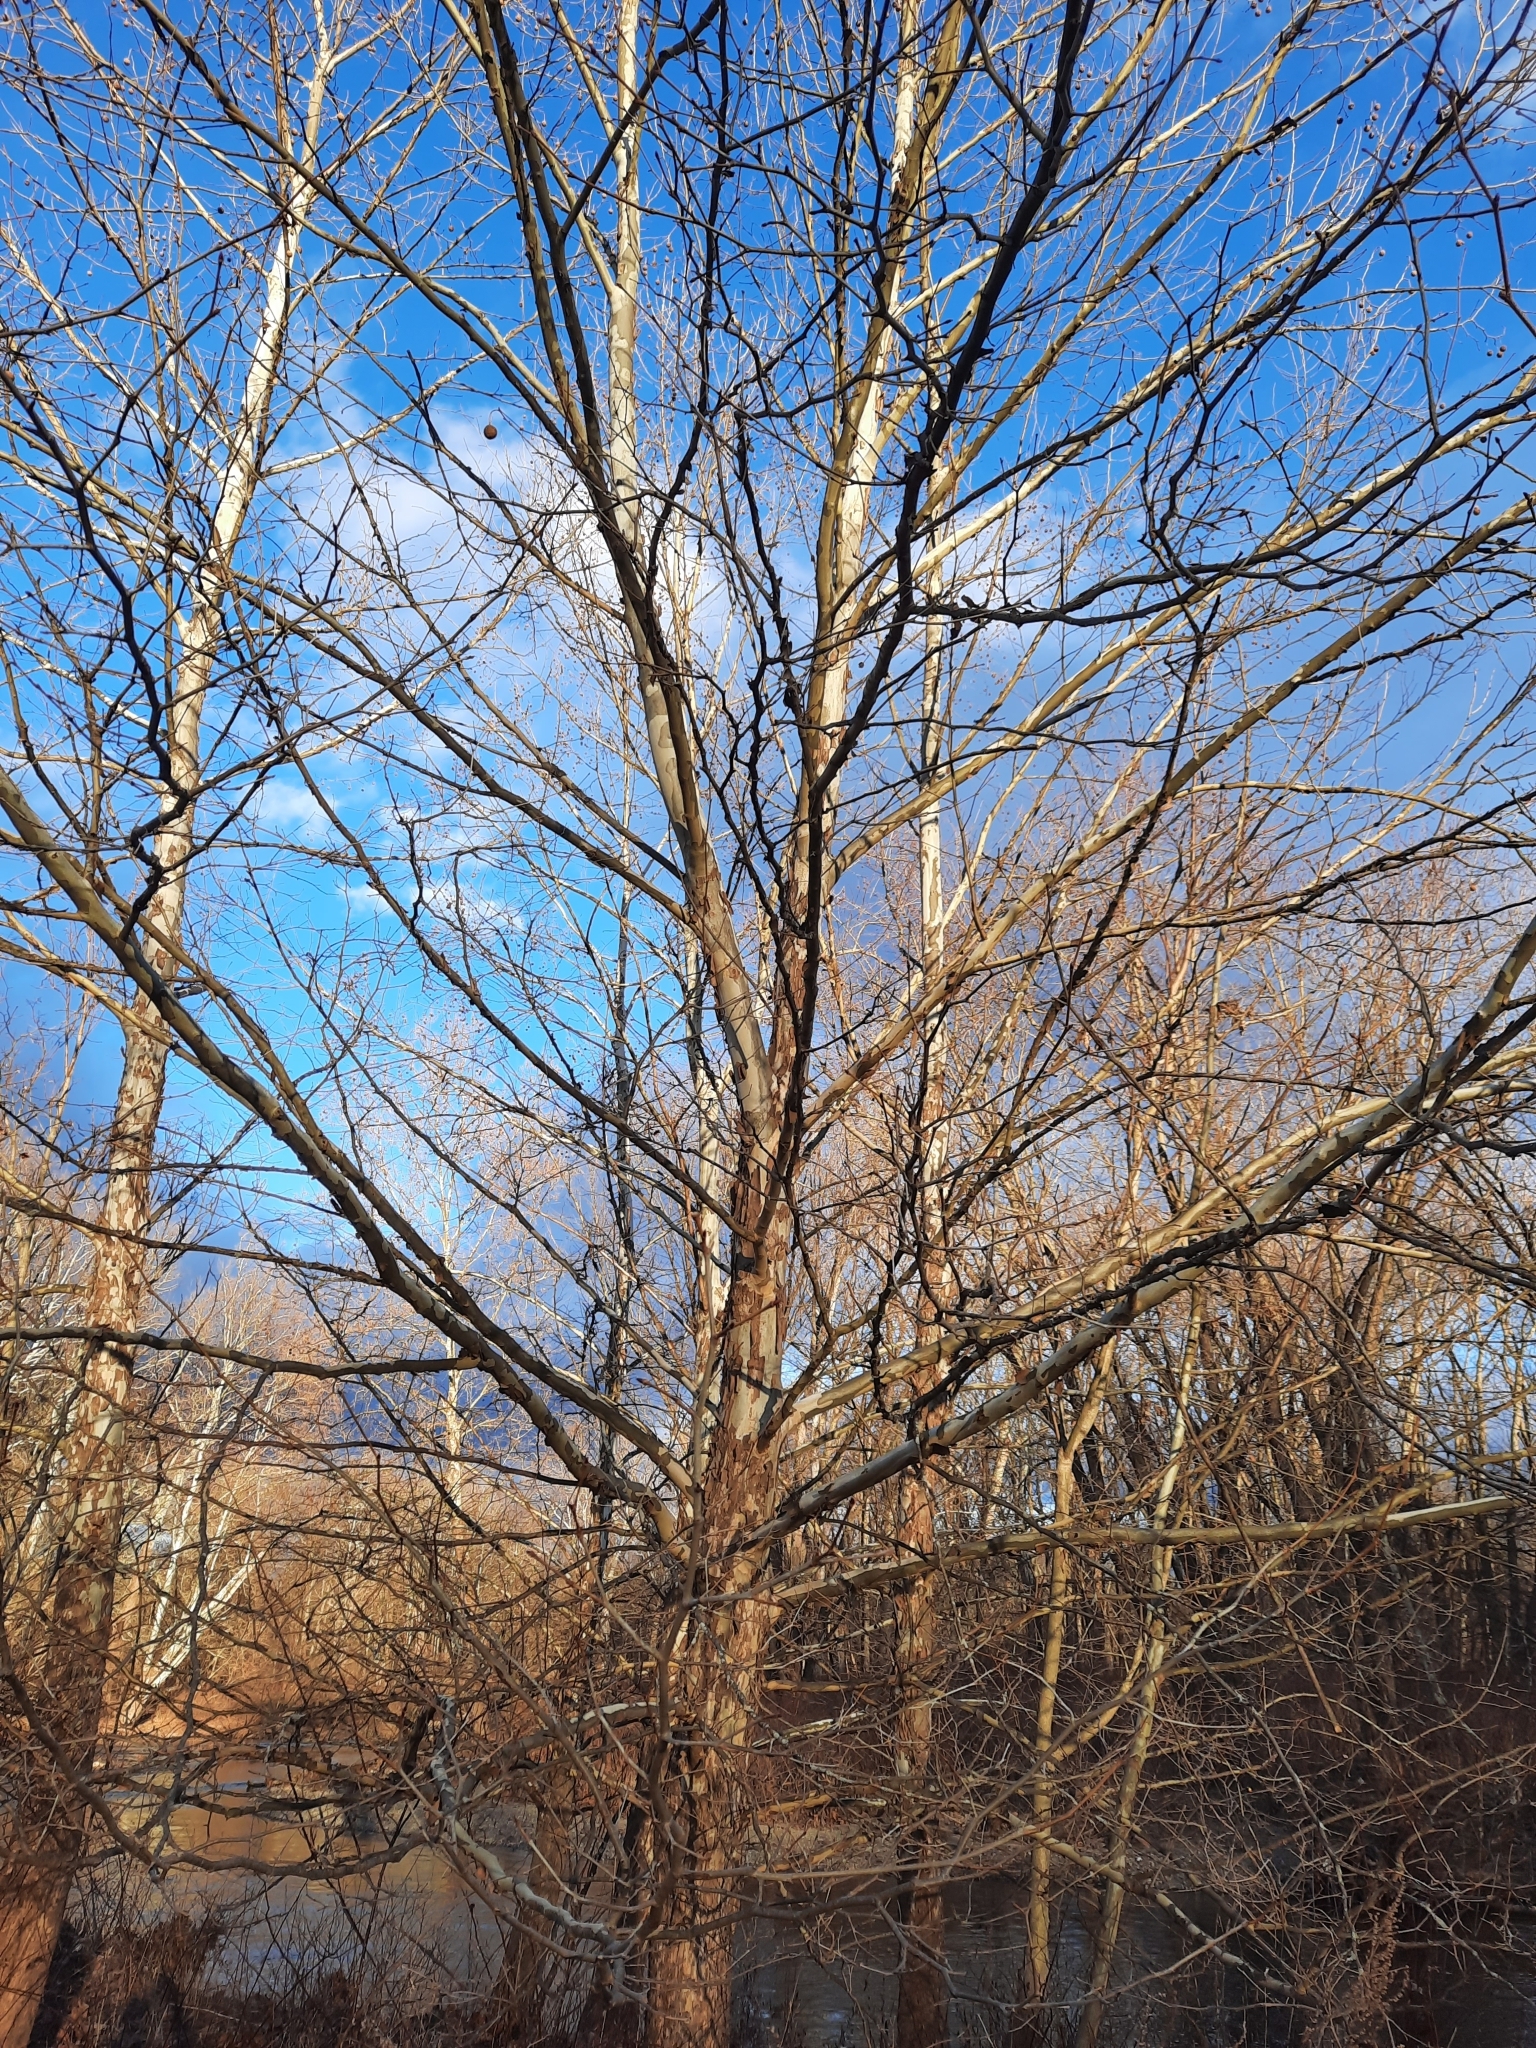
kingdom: Plantae
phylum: Tracheophyta
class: Magnoliopsida
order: Proteales
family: Platanaceae
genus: Platanus
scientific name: Platanus occidentalis
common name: American sycamore
